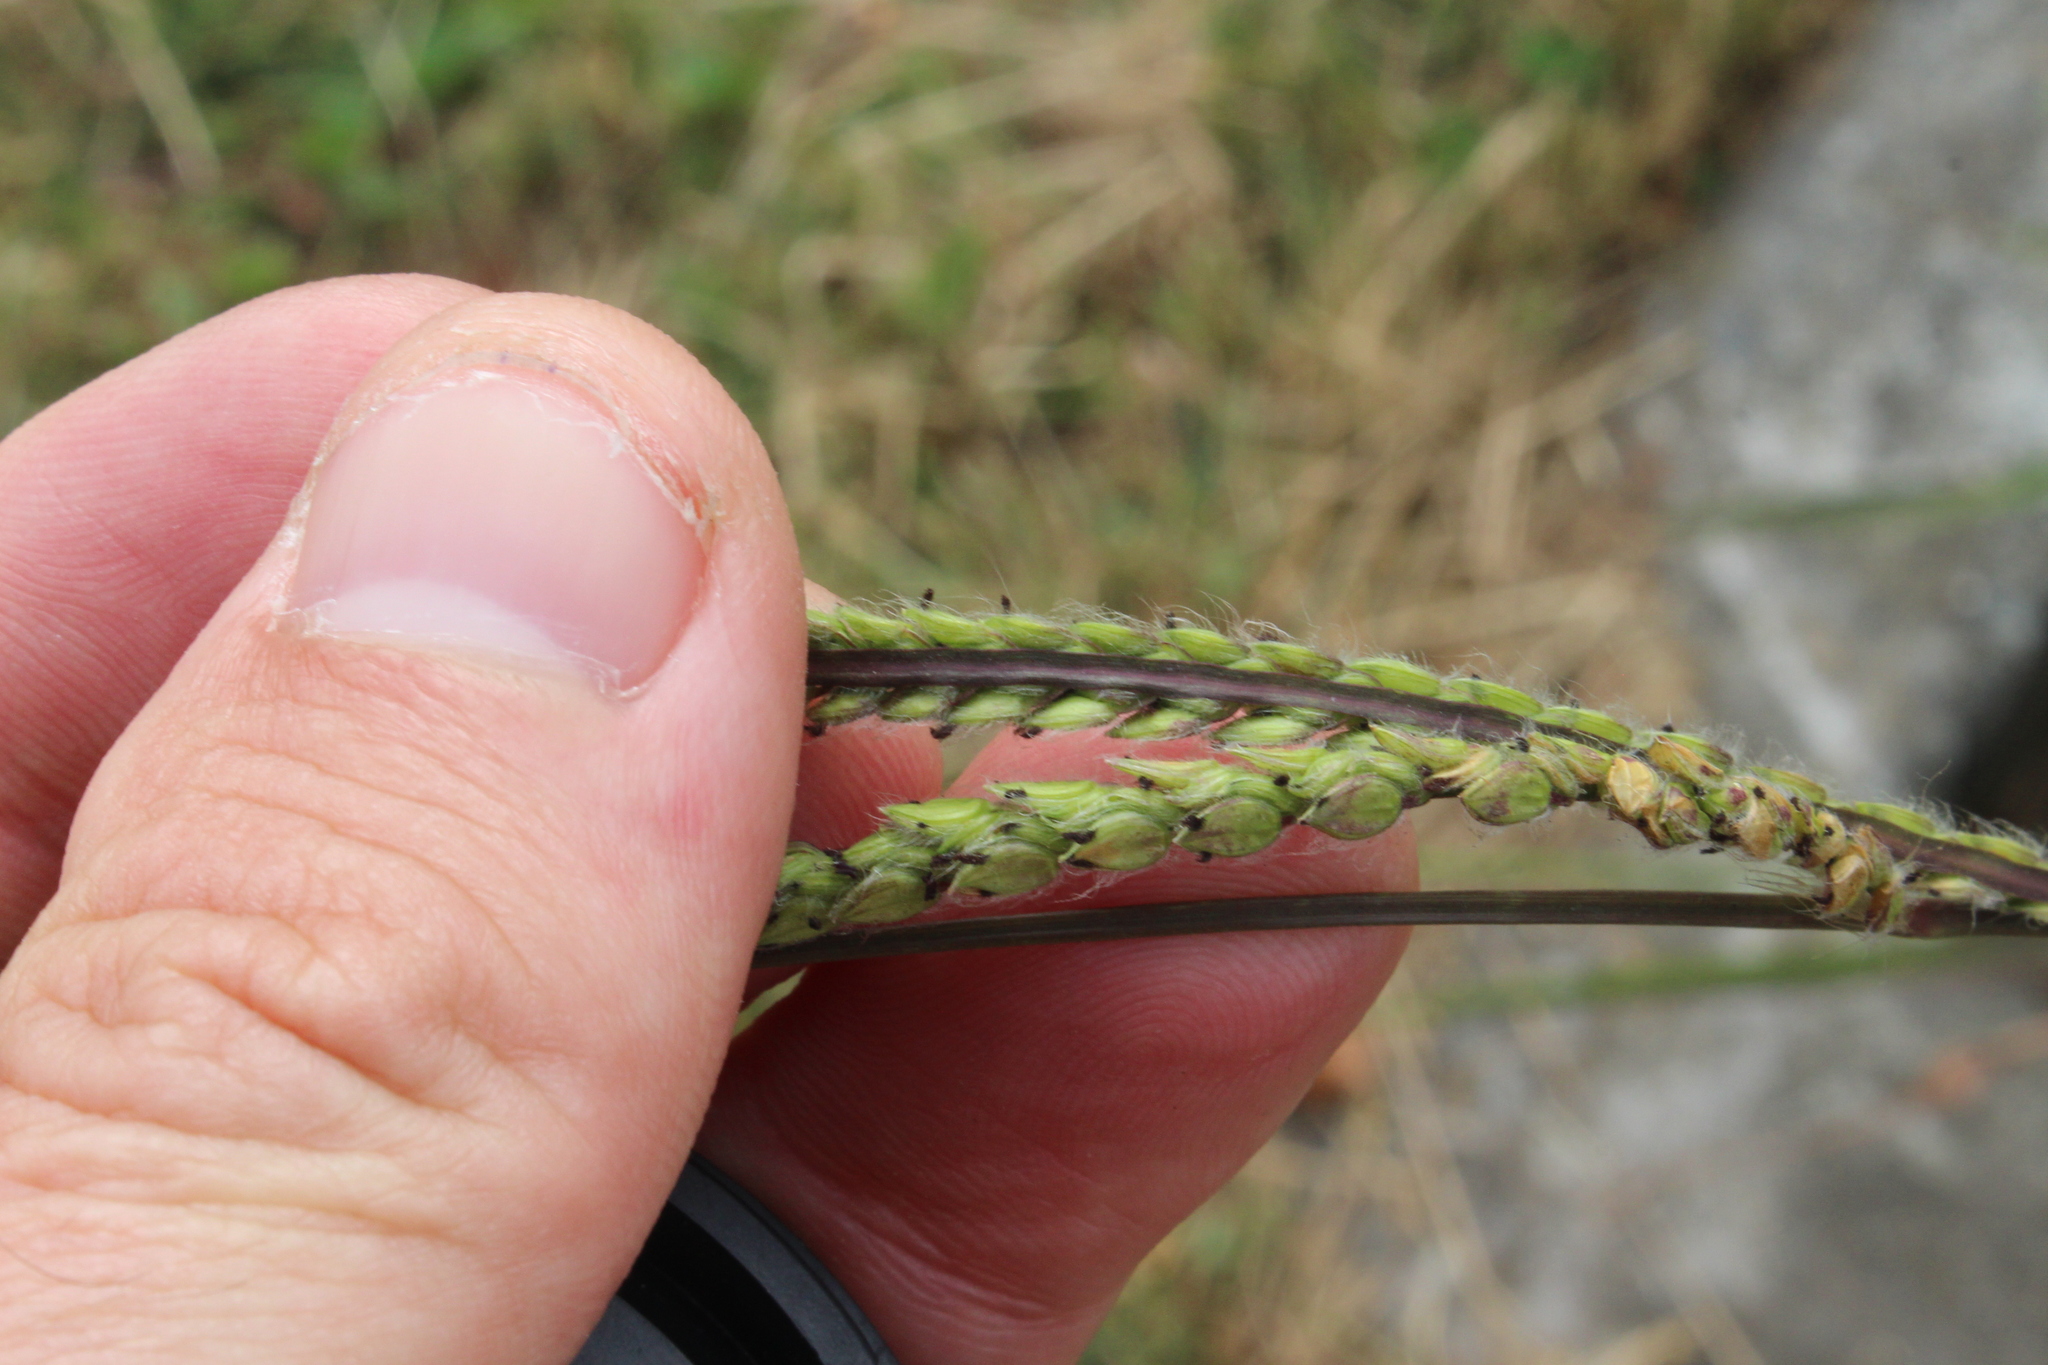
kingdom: Plantae
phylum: Tracheophyta
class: Liliopsida
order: Poales
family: Poaceae
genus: Paspalum
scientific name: Paspalum dilatatum
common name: Dallisgrass
